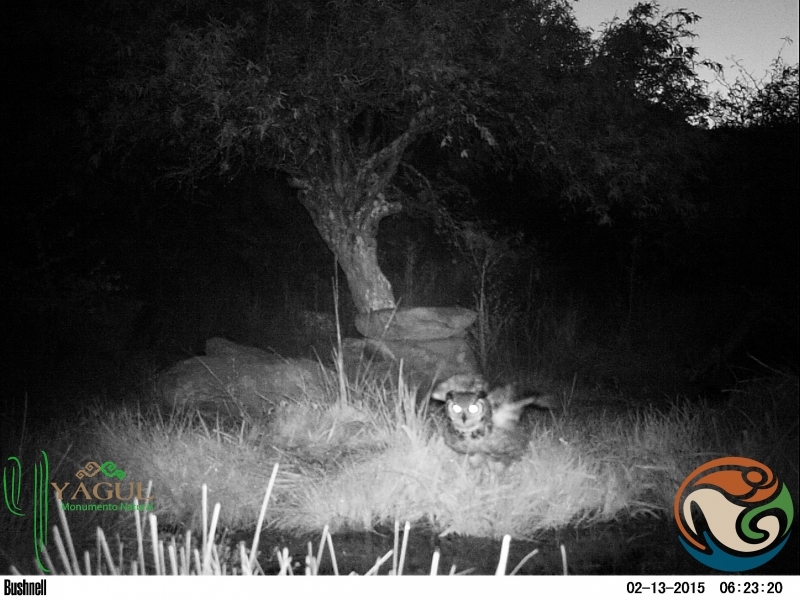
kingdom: Animalia
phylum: Chordata
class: Aves
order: Strigiformes
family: Strigidae
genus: Bubo
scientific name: Bubo virginianus
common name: Great horned owl
